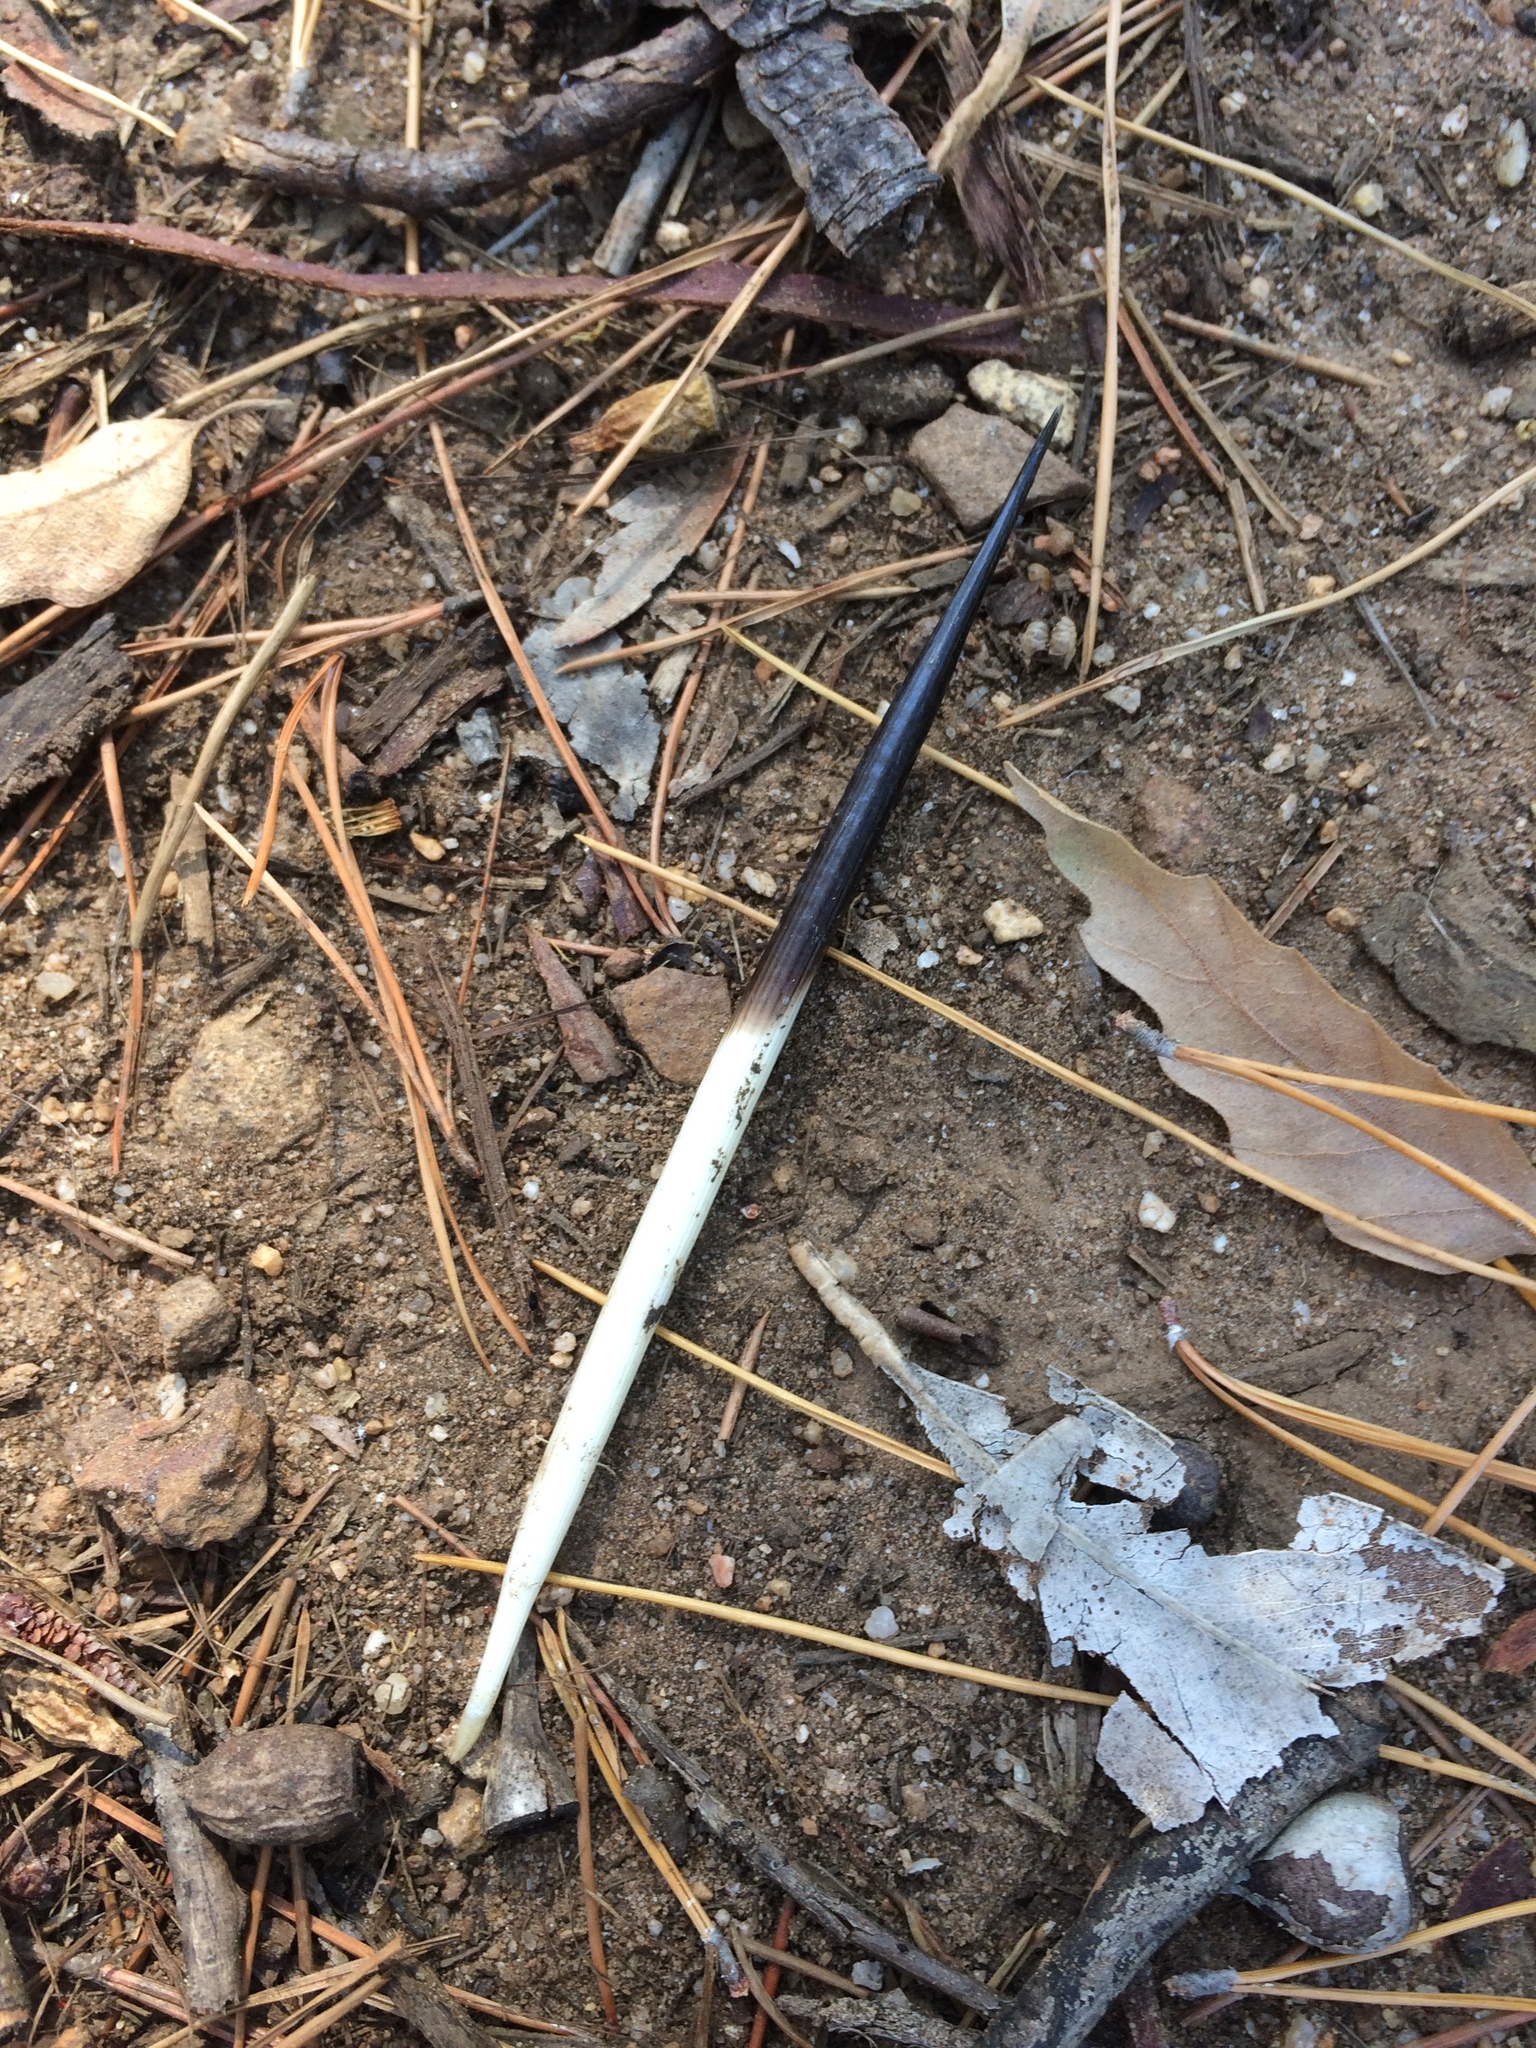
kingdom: Animalia
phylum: Chordata
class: Mammalia
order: Rodentia
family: Hystricidae
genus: Hystrix
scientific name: Hystrix africaeaustralis
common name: Cape porcupine
